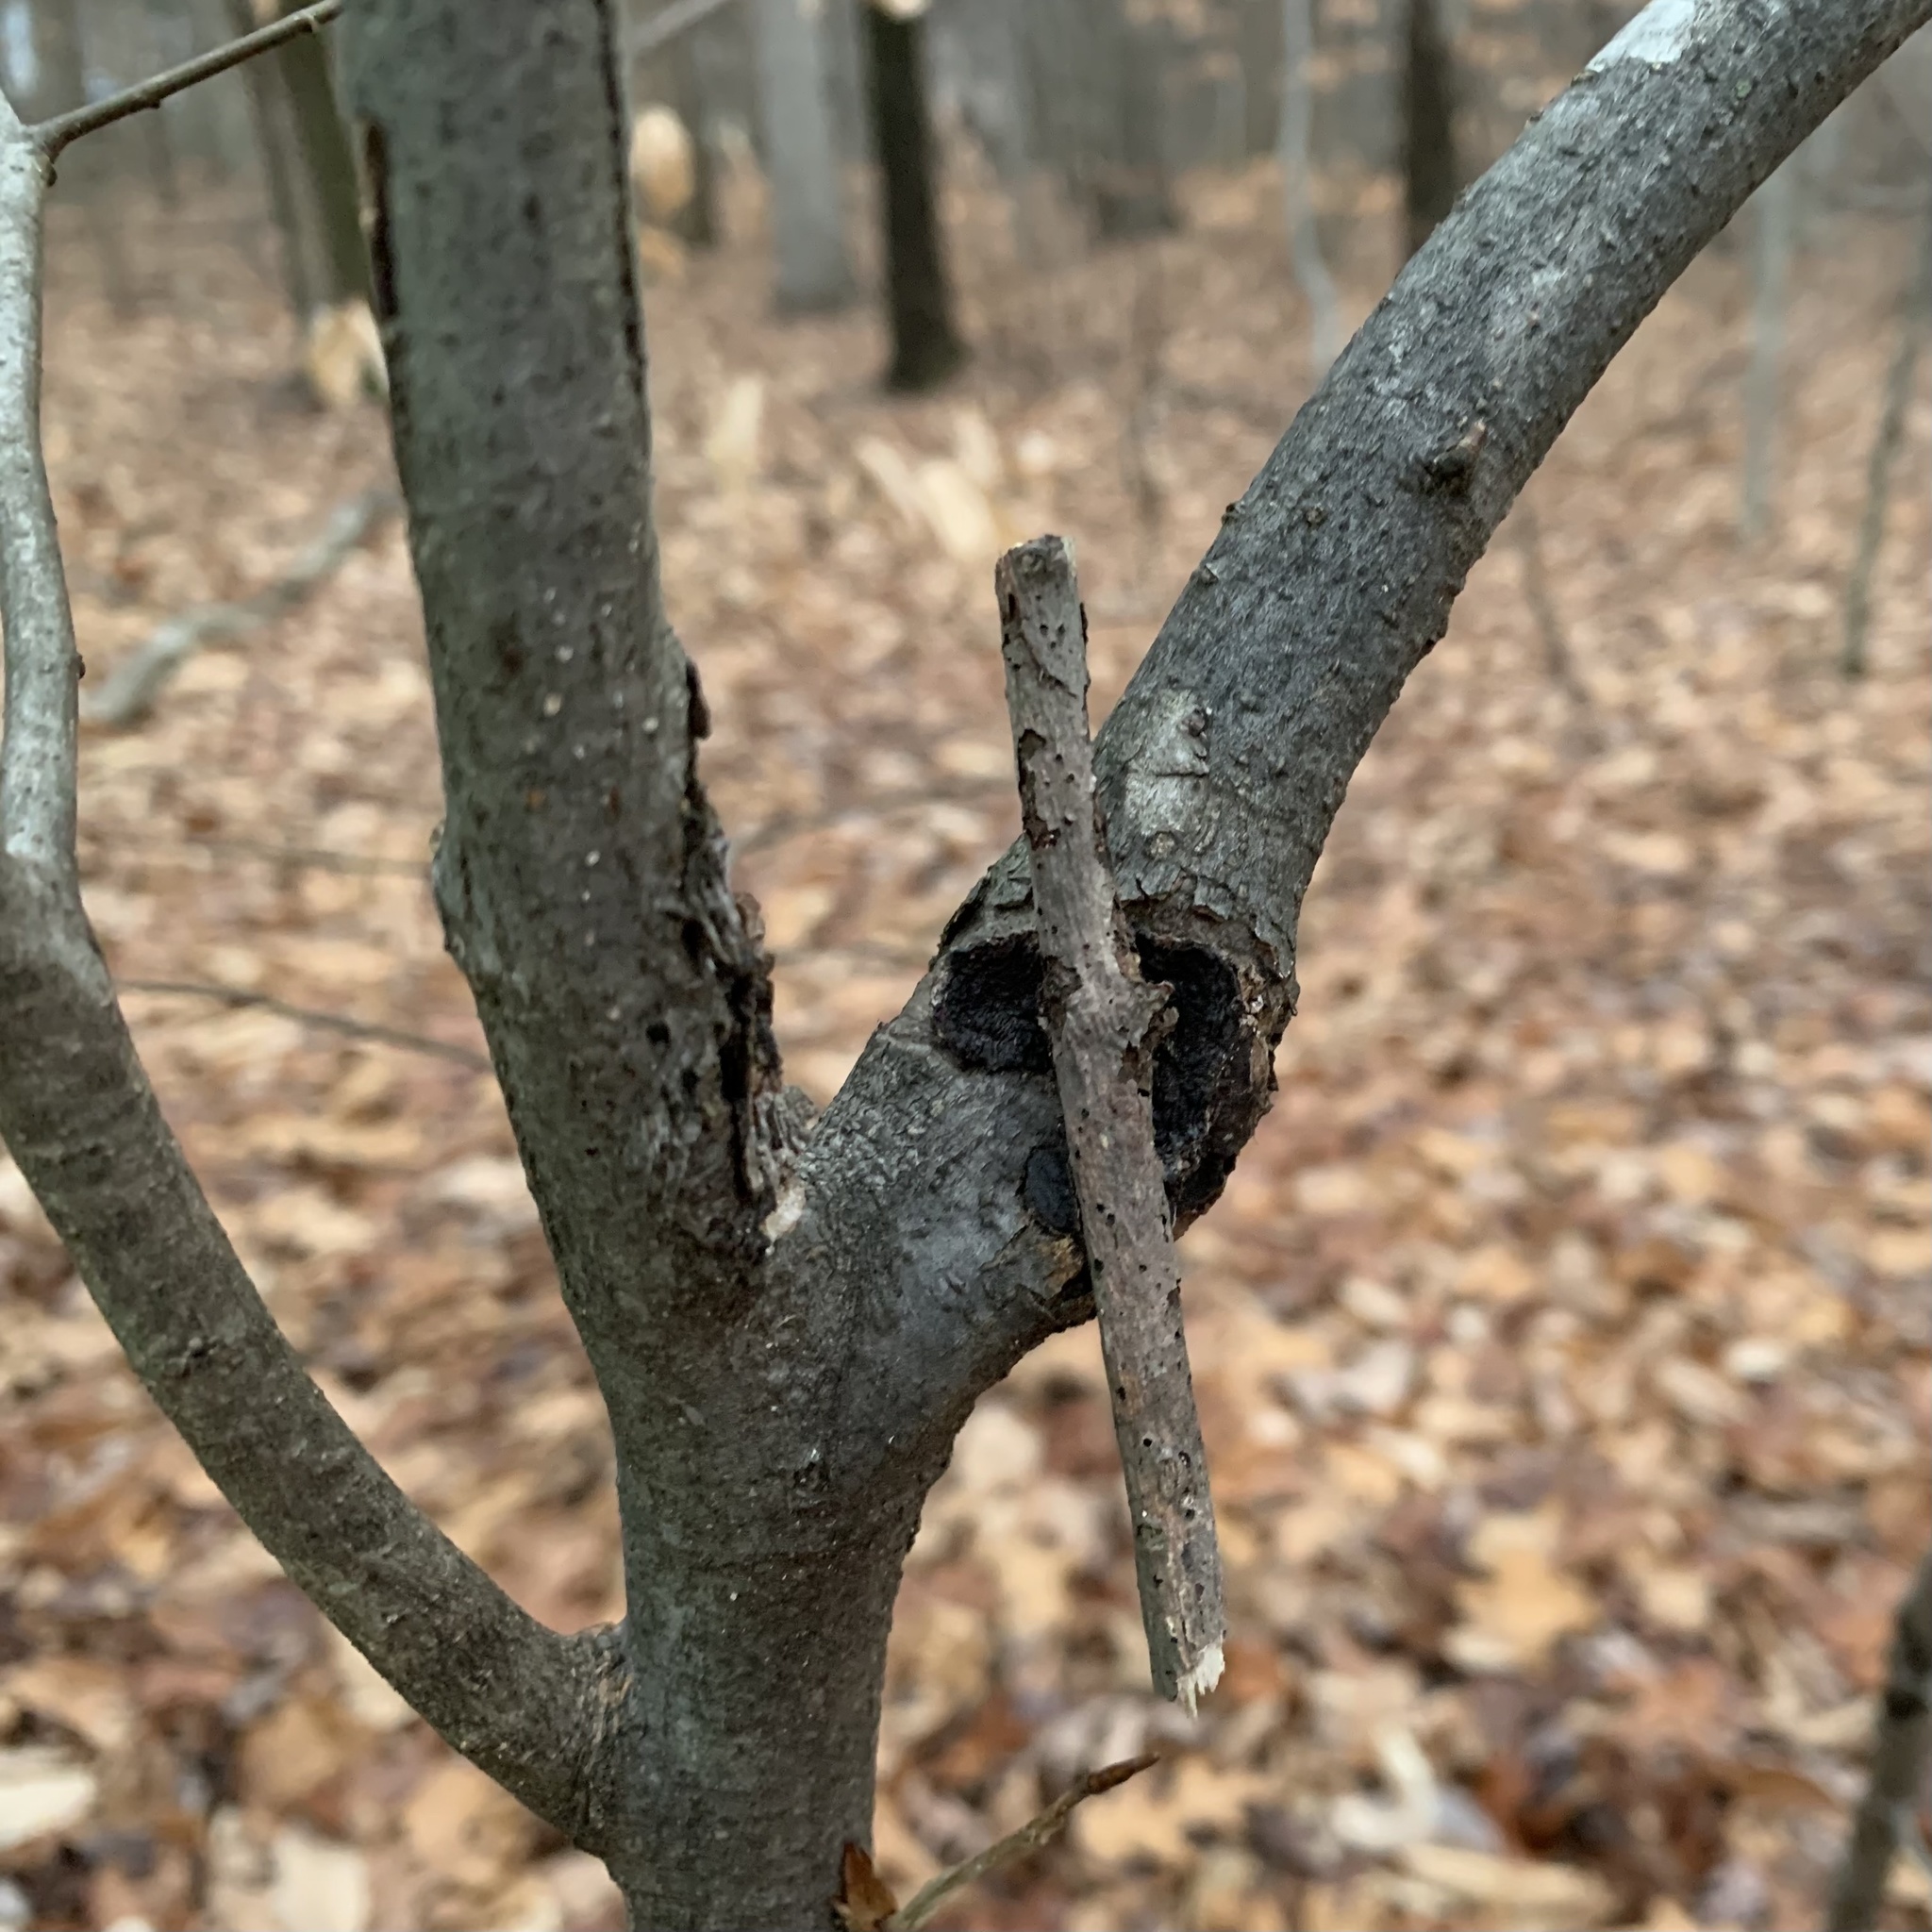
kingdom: Fungi
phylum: Basidiomycota
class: Agaricomycetes
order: Hymenochaetales
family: Hymenochaetaceae
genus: Hydnoporia
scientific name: Hydnoporia diffissa
